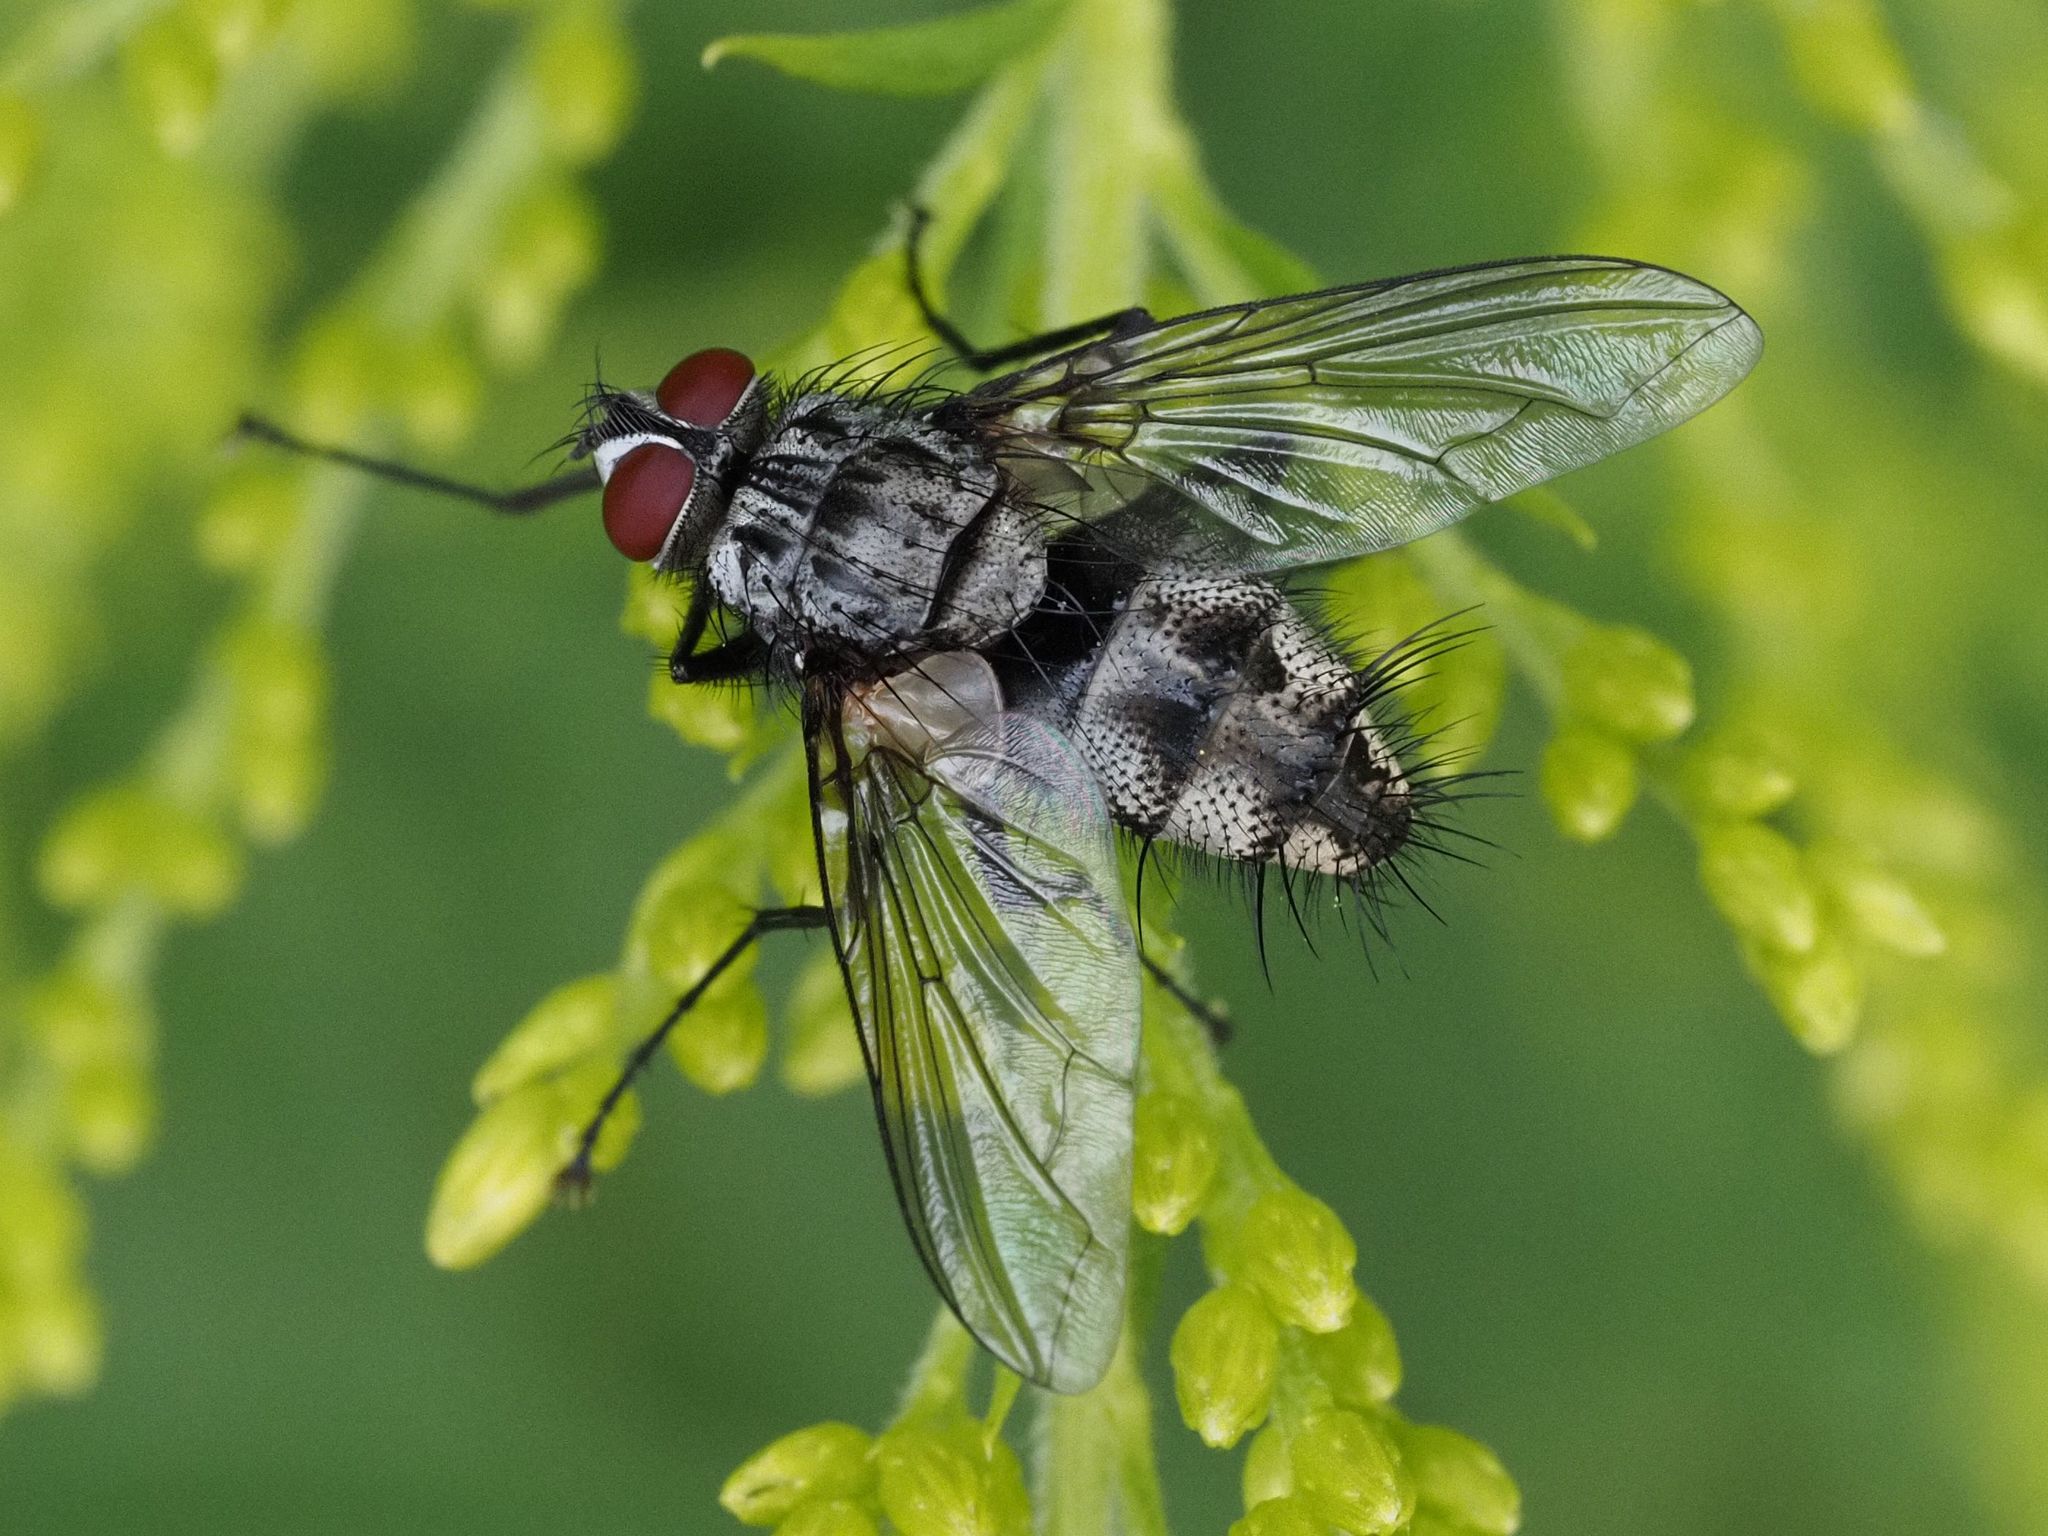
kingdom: Animalia
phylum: Arthropoda
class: Insecta
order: Diptera
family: Tachinidae
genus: Dinera
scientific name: Dinera ferina
